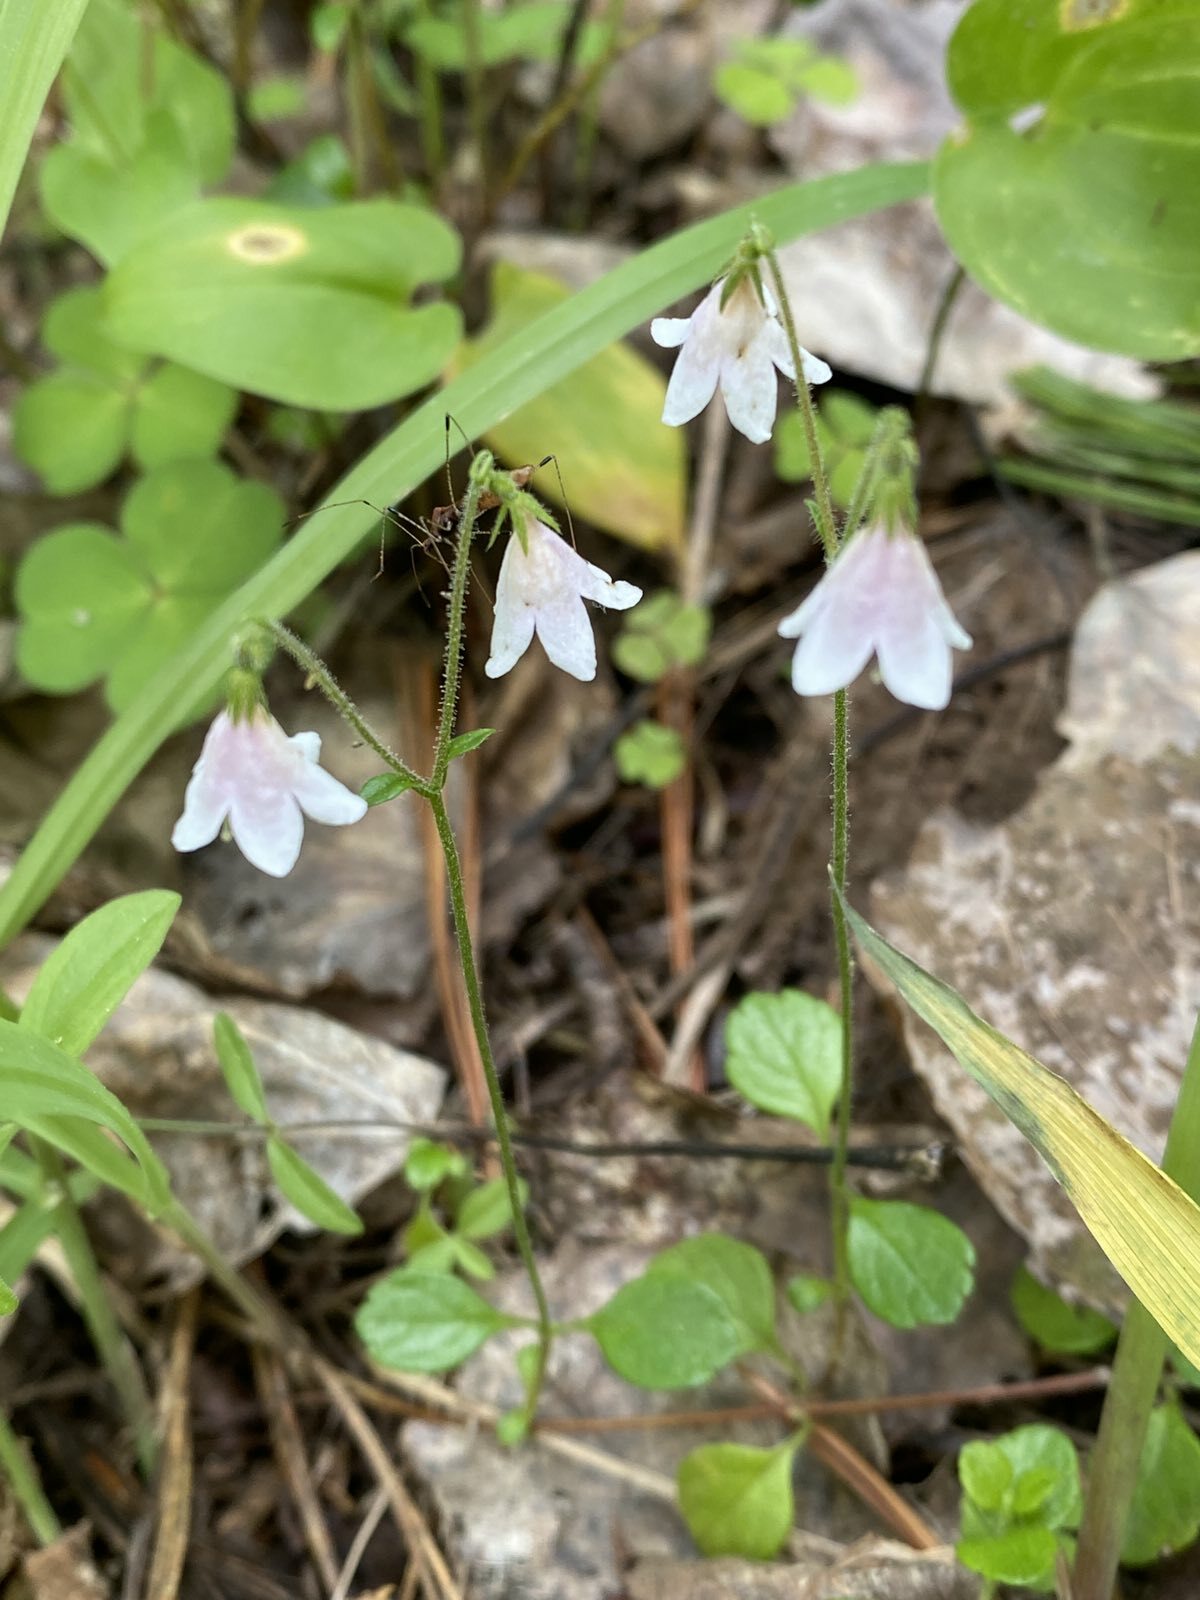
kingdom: Plantae
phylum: Tracheophyta
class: Magnoliopsida
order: Dipsacales
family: Caprifoliaceae
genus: Linnaea
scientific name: Linnaea borealis
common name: Twinflower
